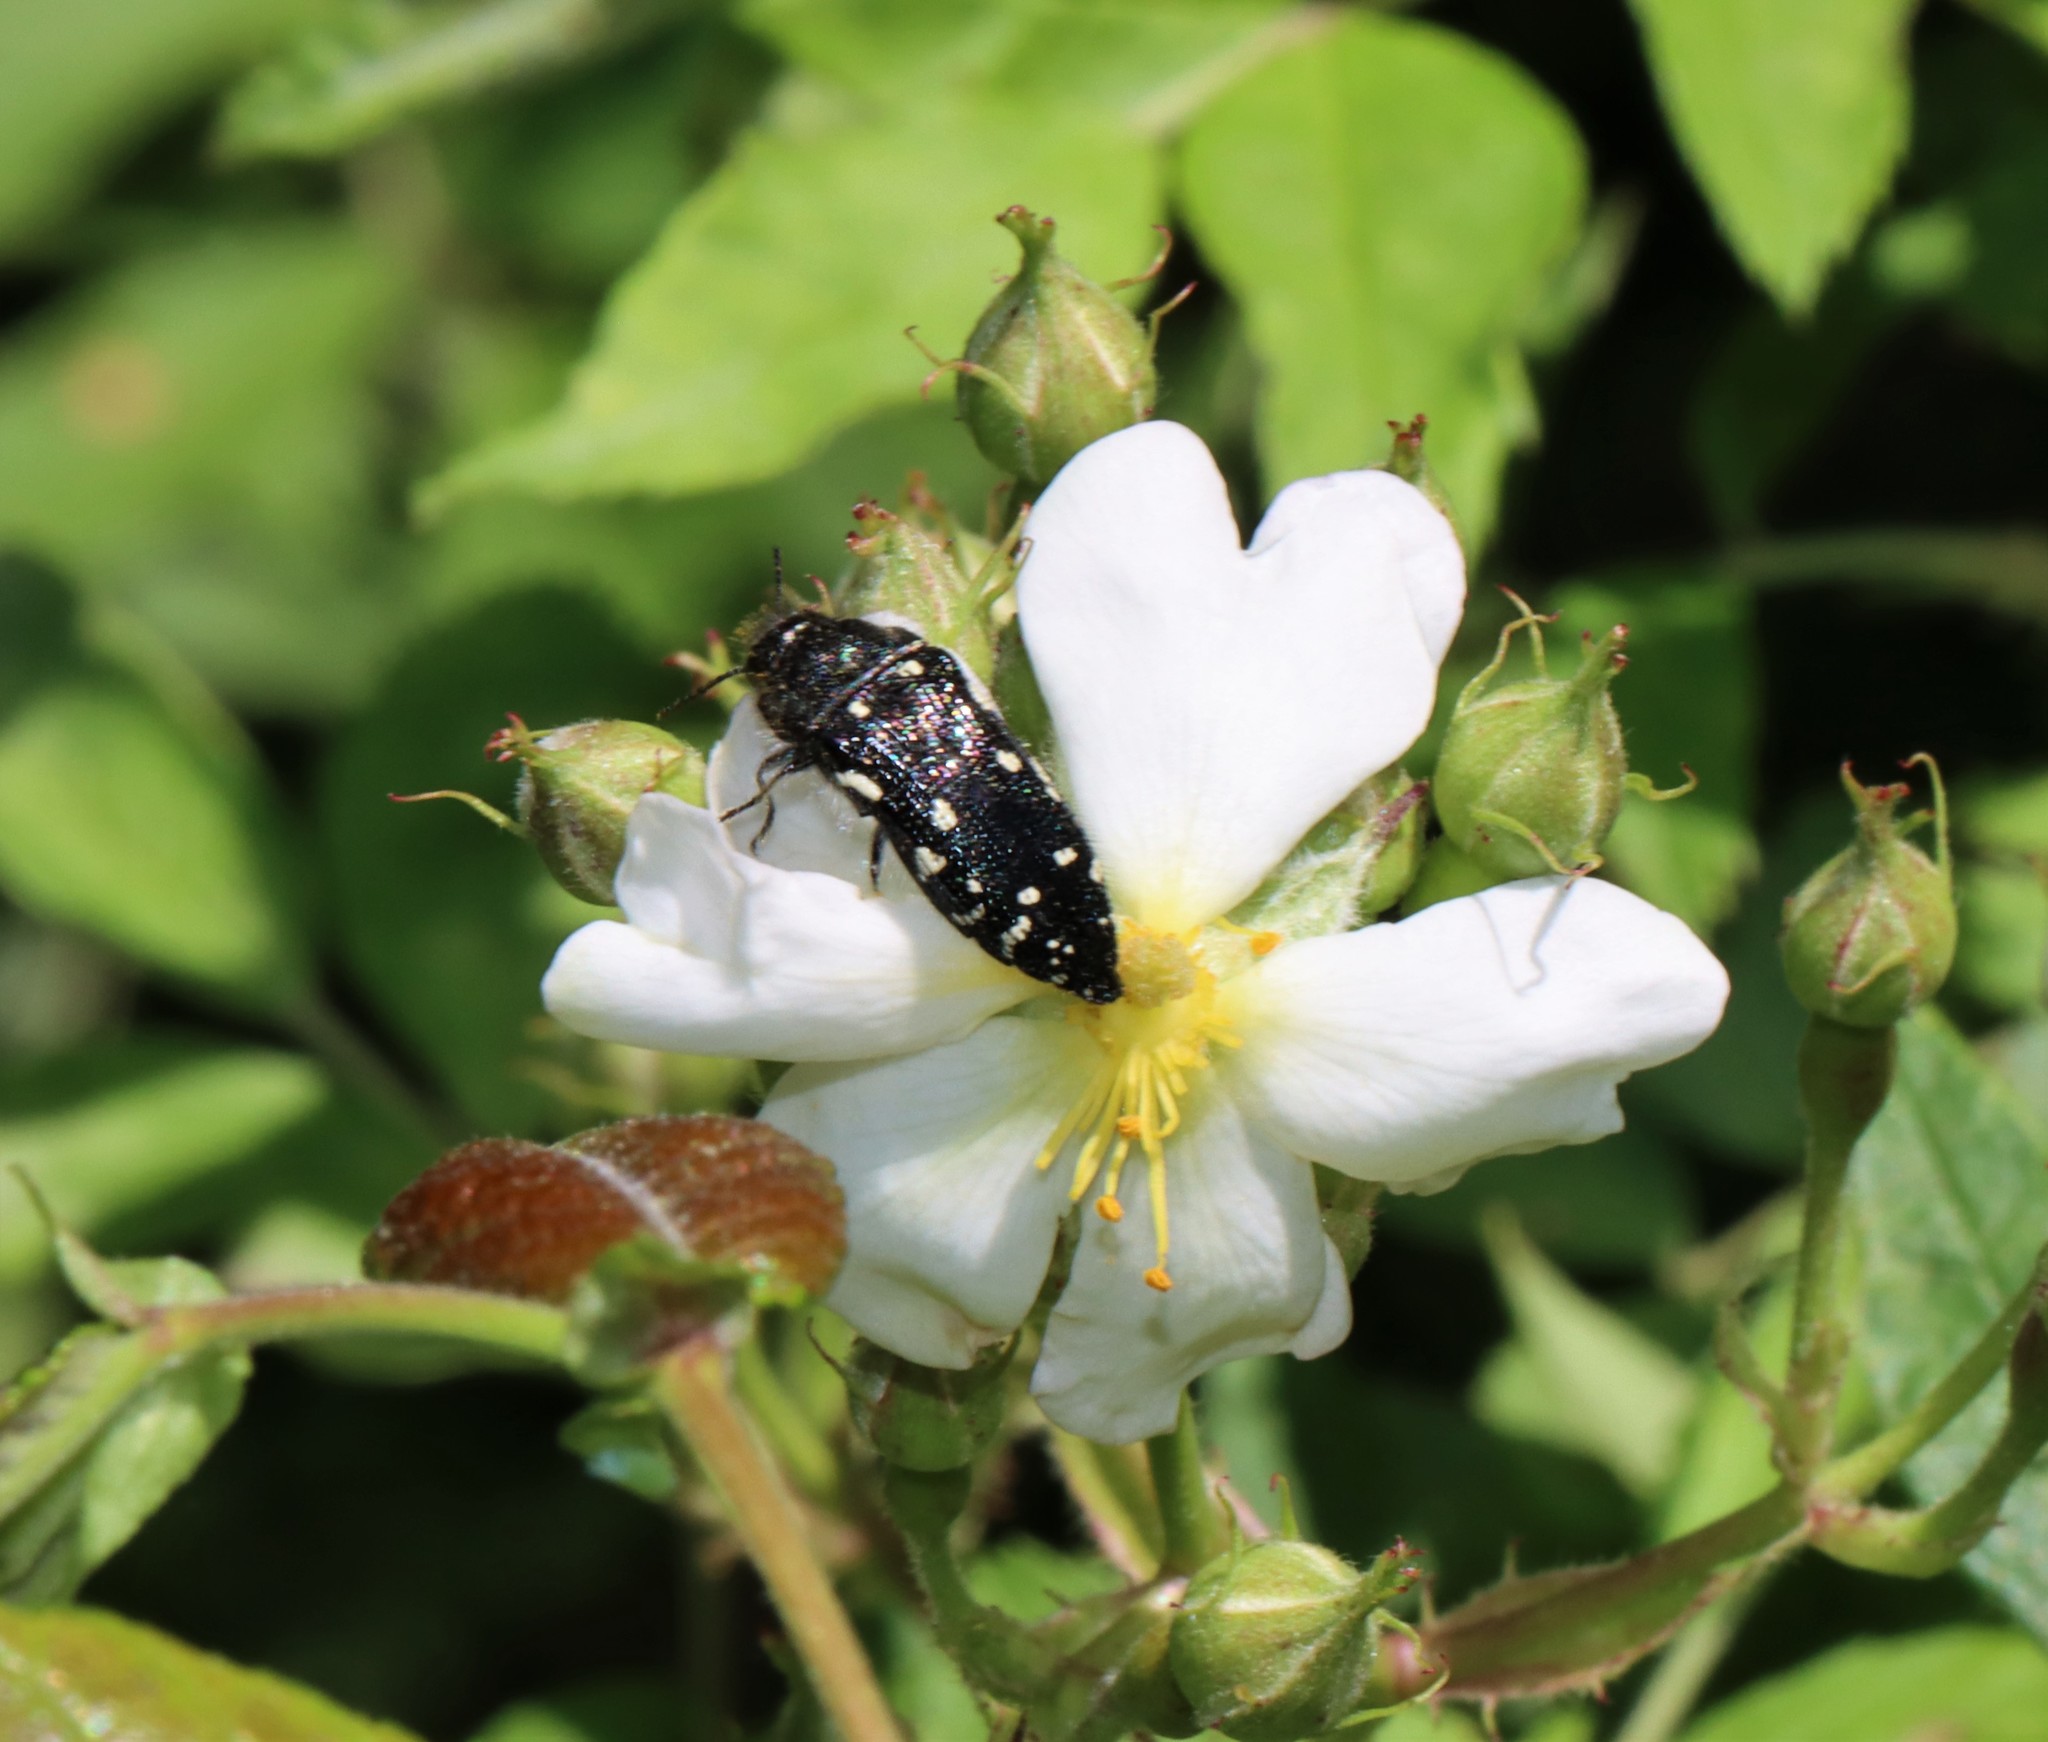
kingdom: Animalia
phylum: Arthropoda
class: Insecta
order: Coleoptera
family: Buprestidae
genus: Acmaeodera
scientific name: Acmaeodera ornata
